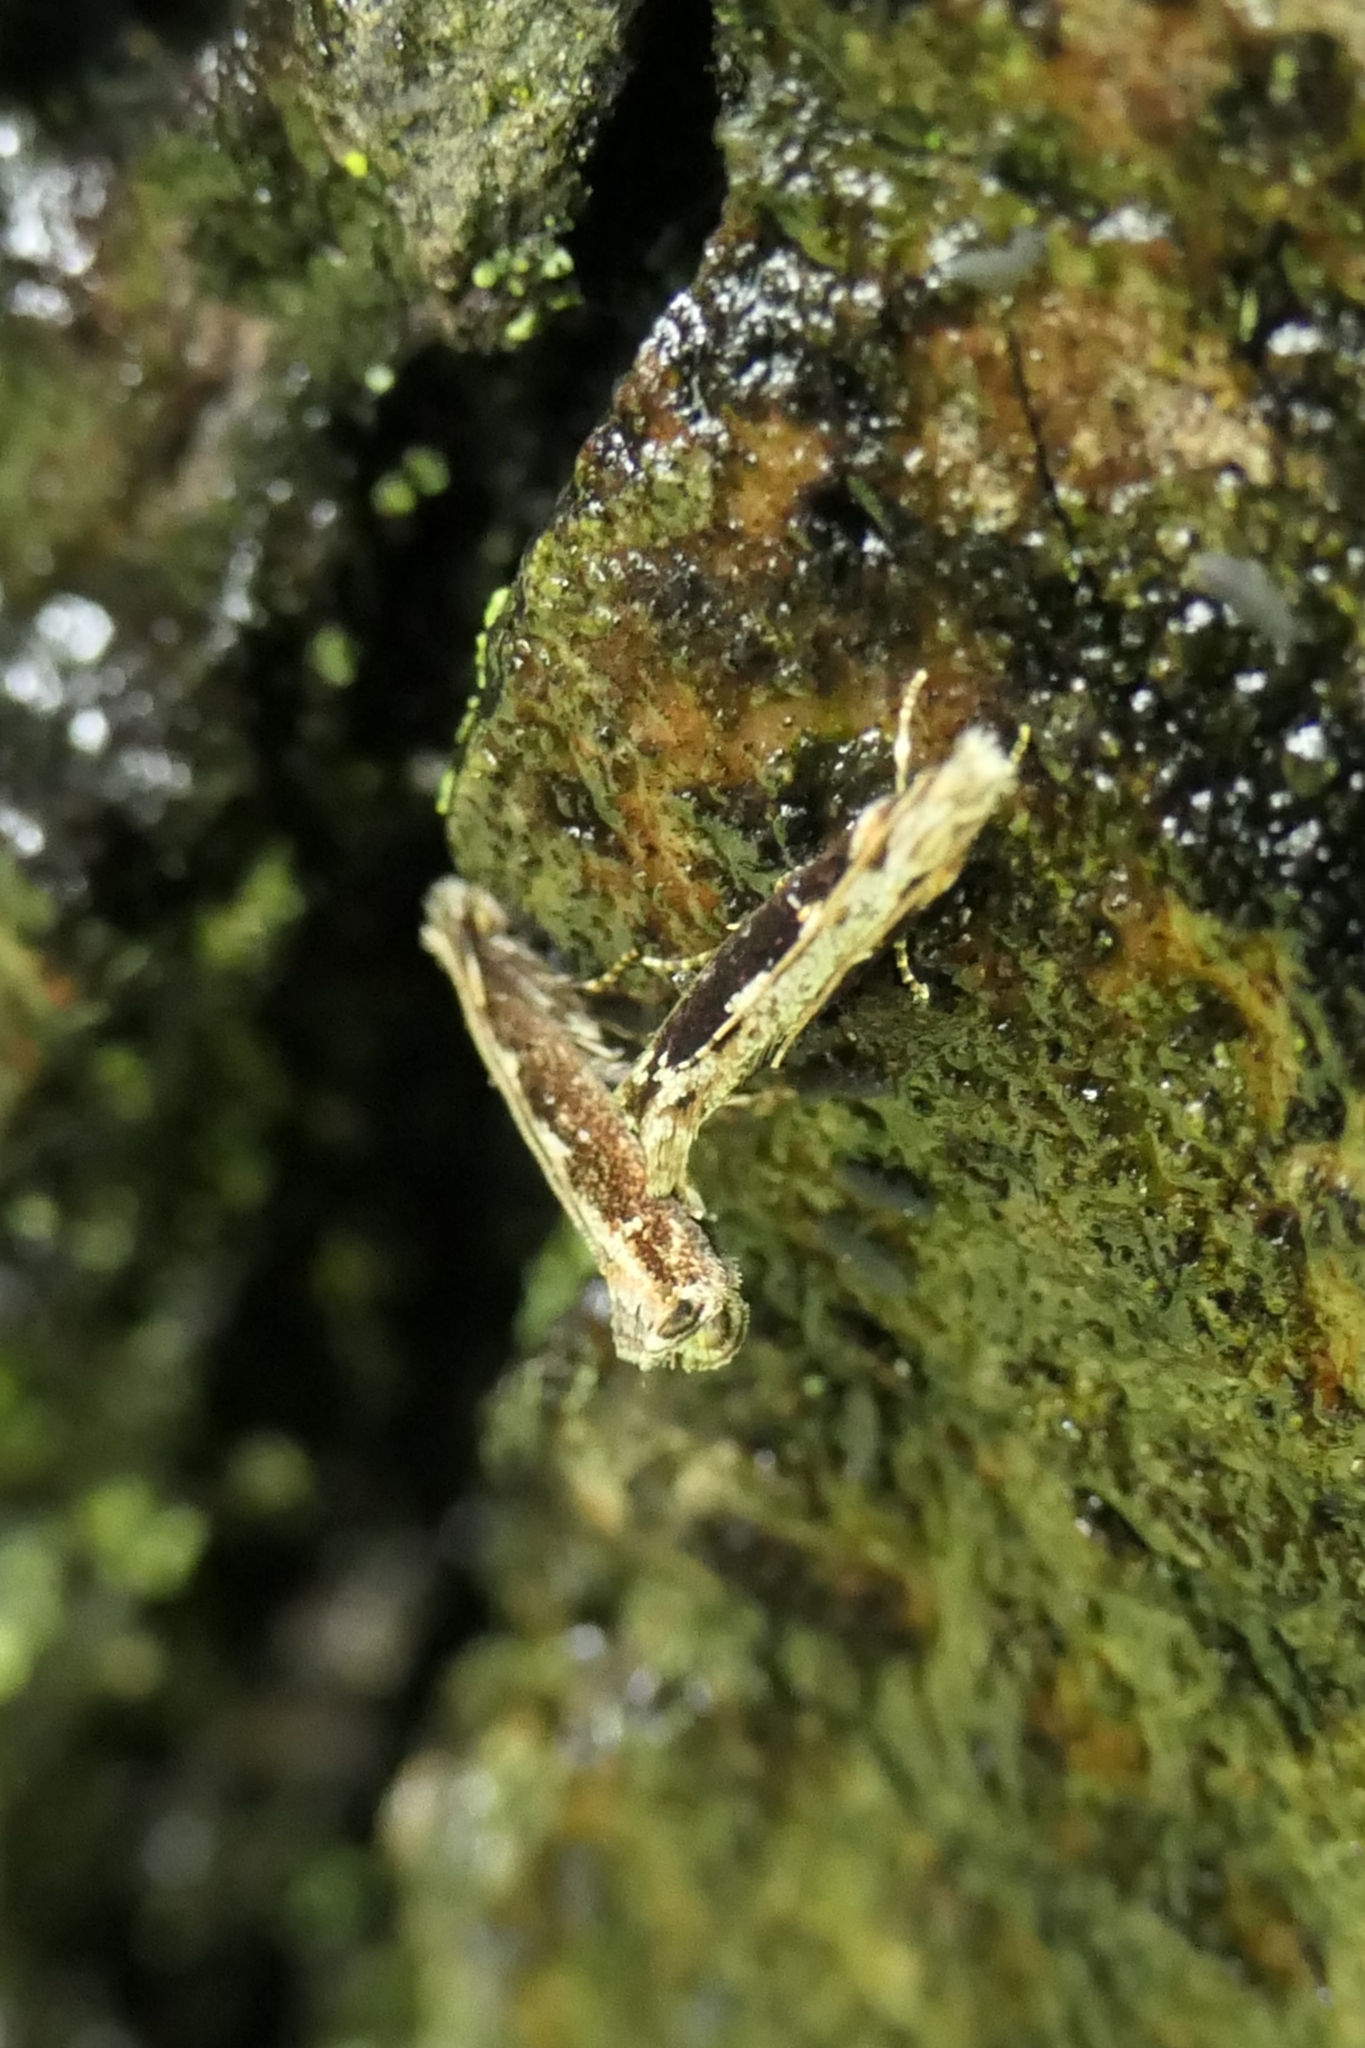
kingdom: Animalia
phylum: Arthropoda
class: Insecta
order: Lepidoptera
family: Tineidae
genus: Erechthias
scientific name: Erechthias macrozyga
